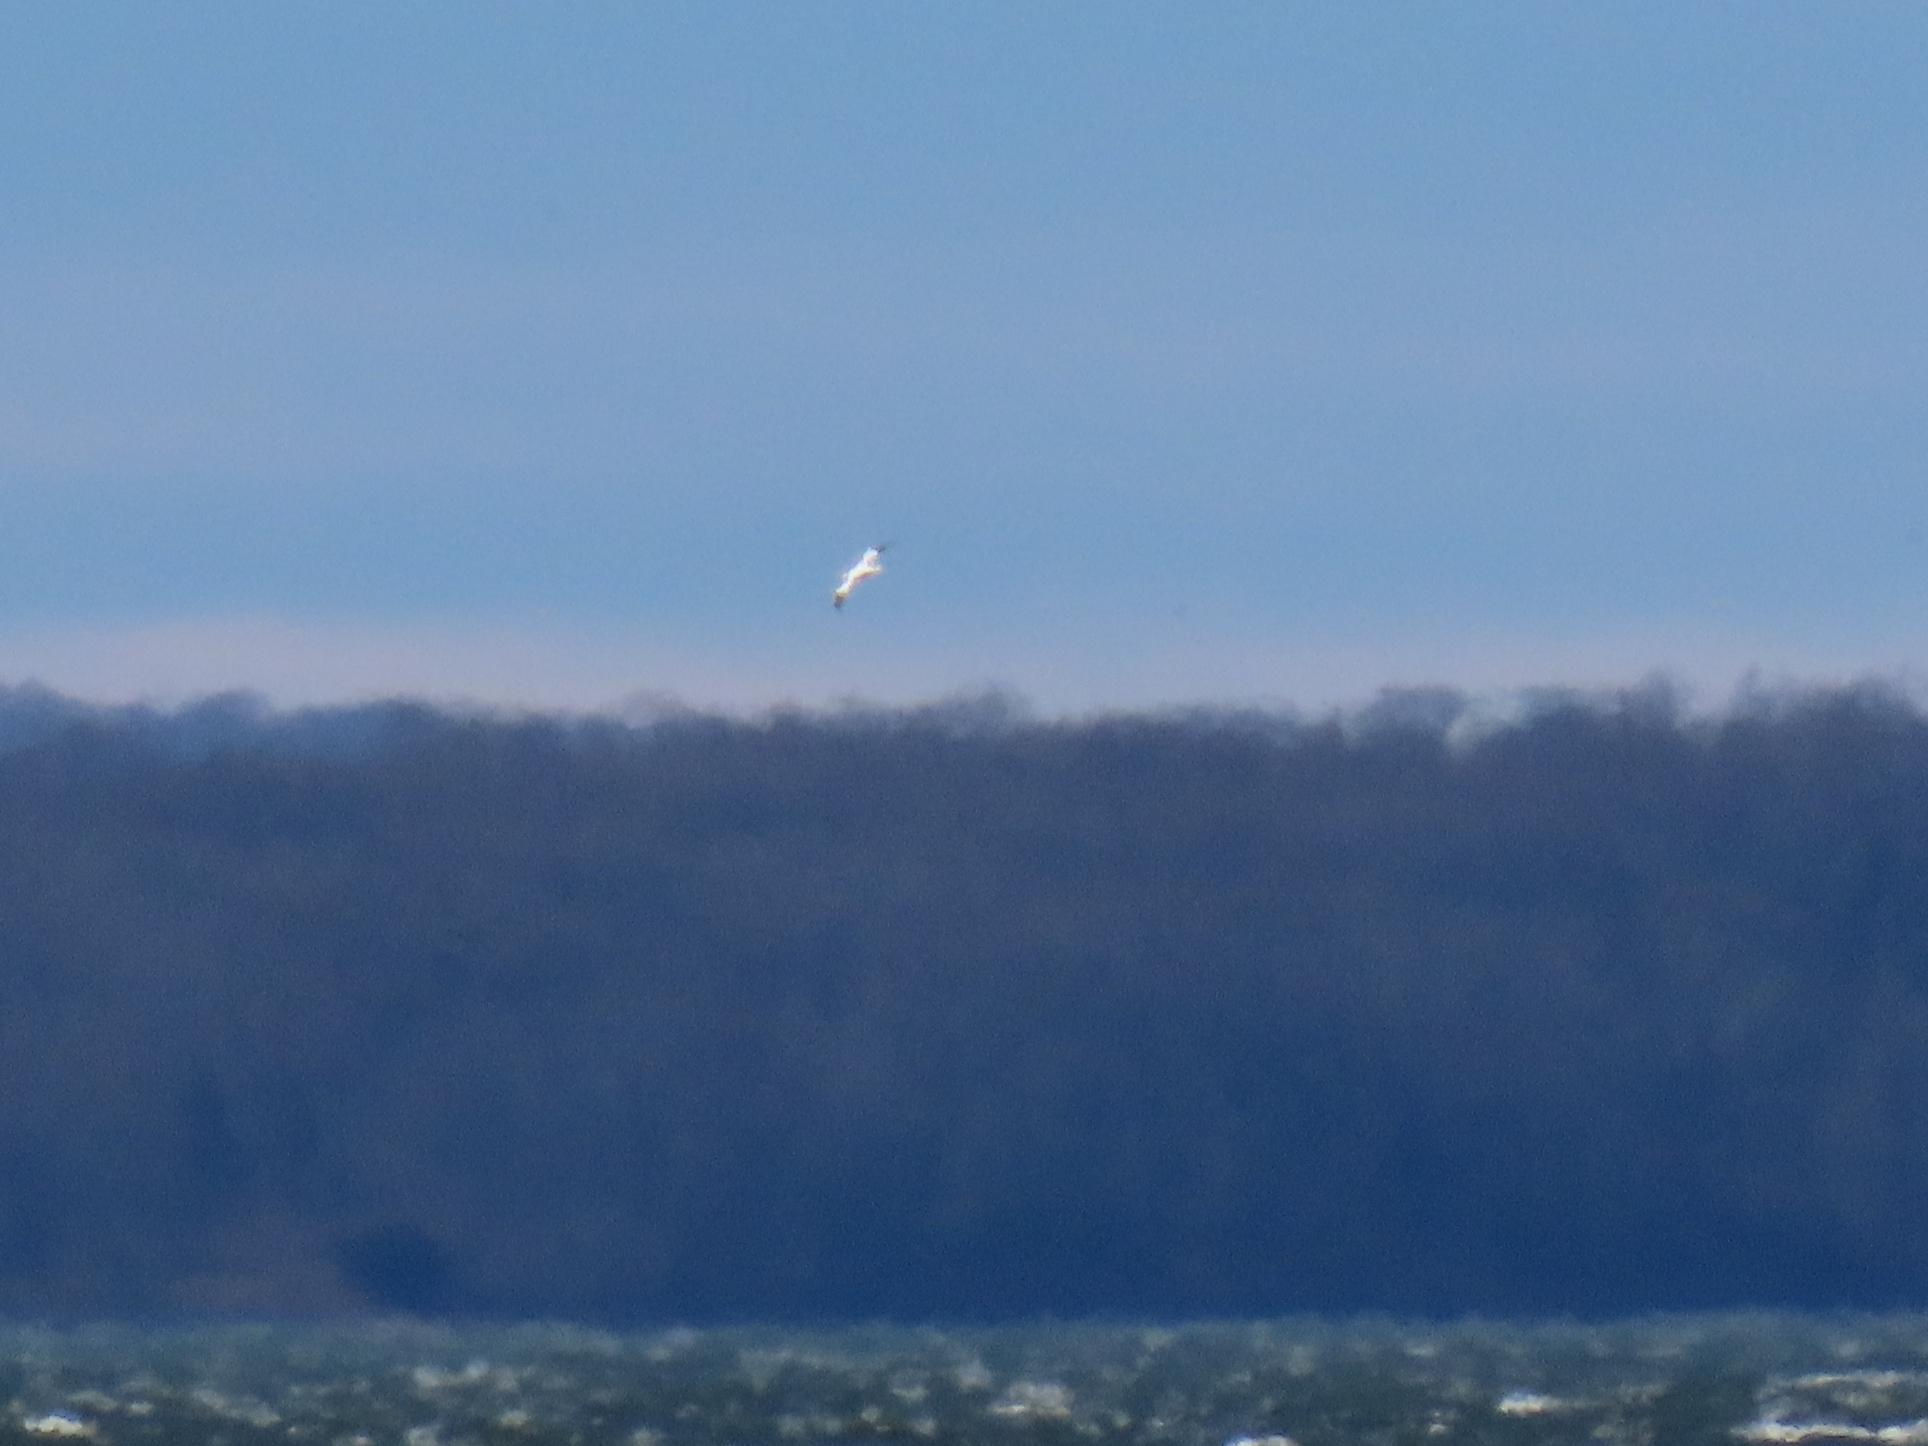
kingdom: Animalia
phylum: Chordata
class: Aves
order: Suliformes
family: Sulidae
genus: Morus
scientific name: Morus bassanus
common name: Northern gannet
